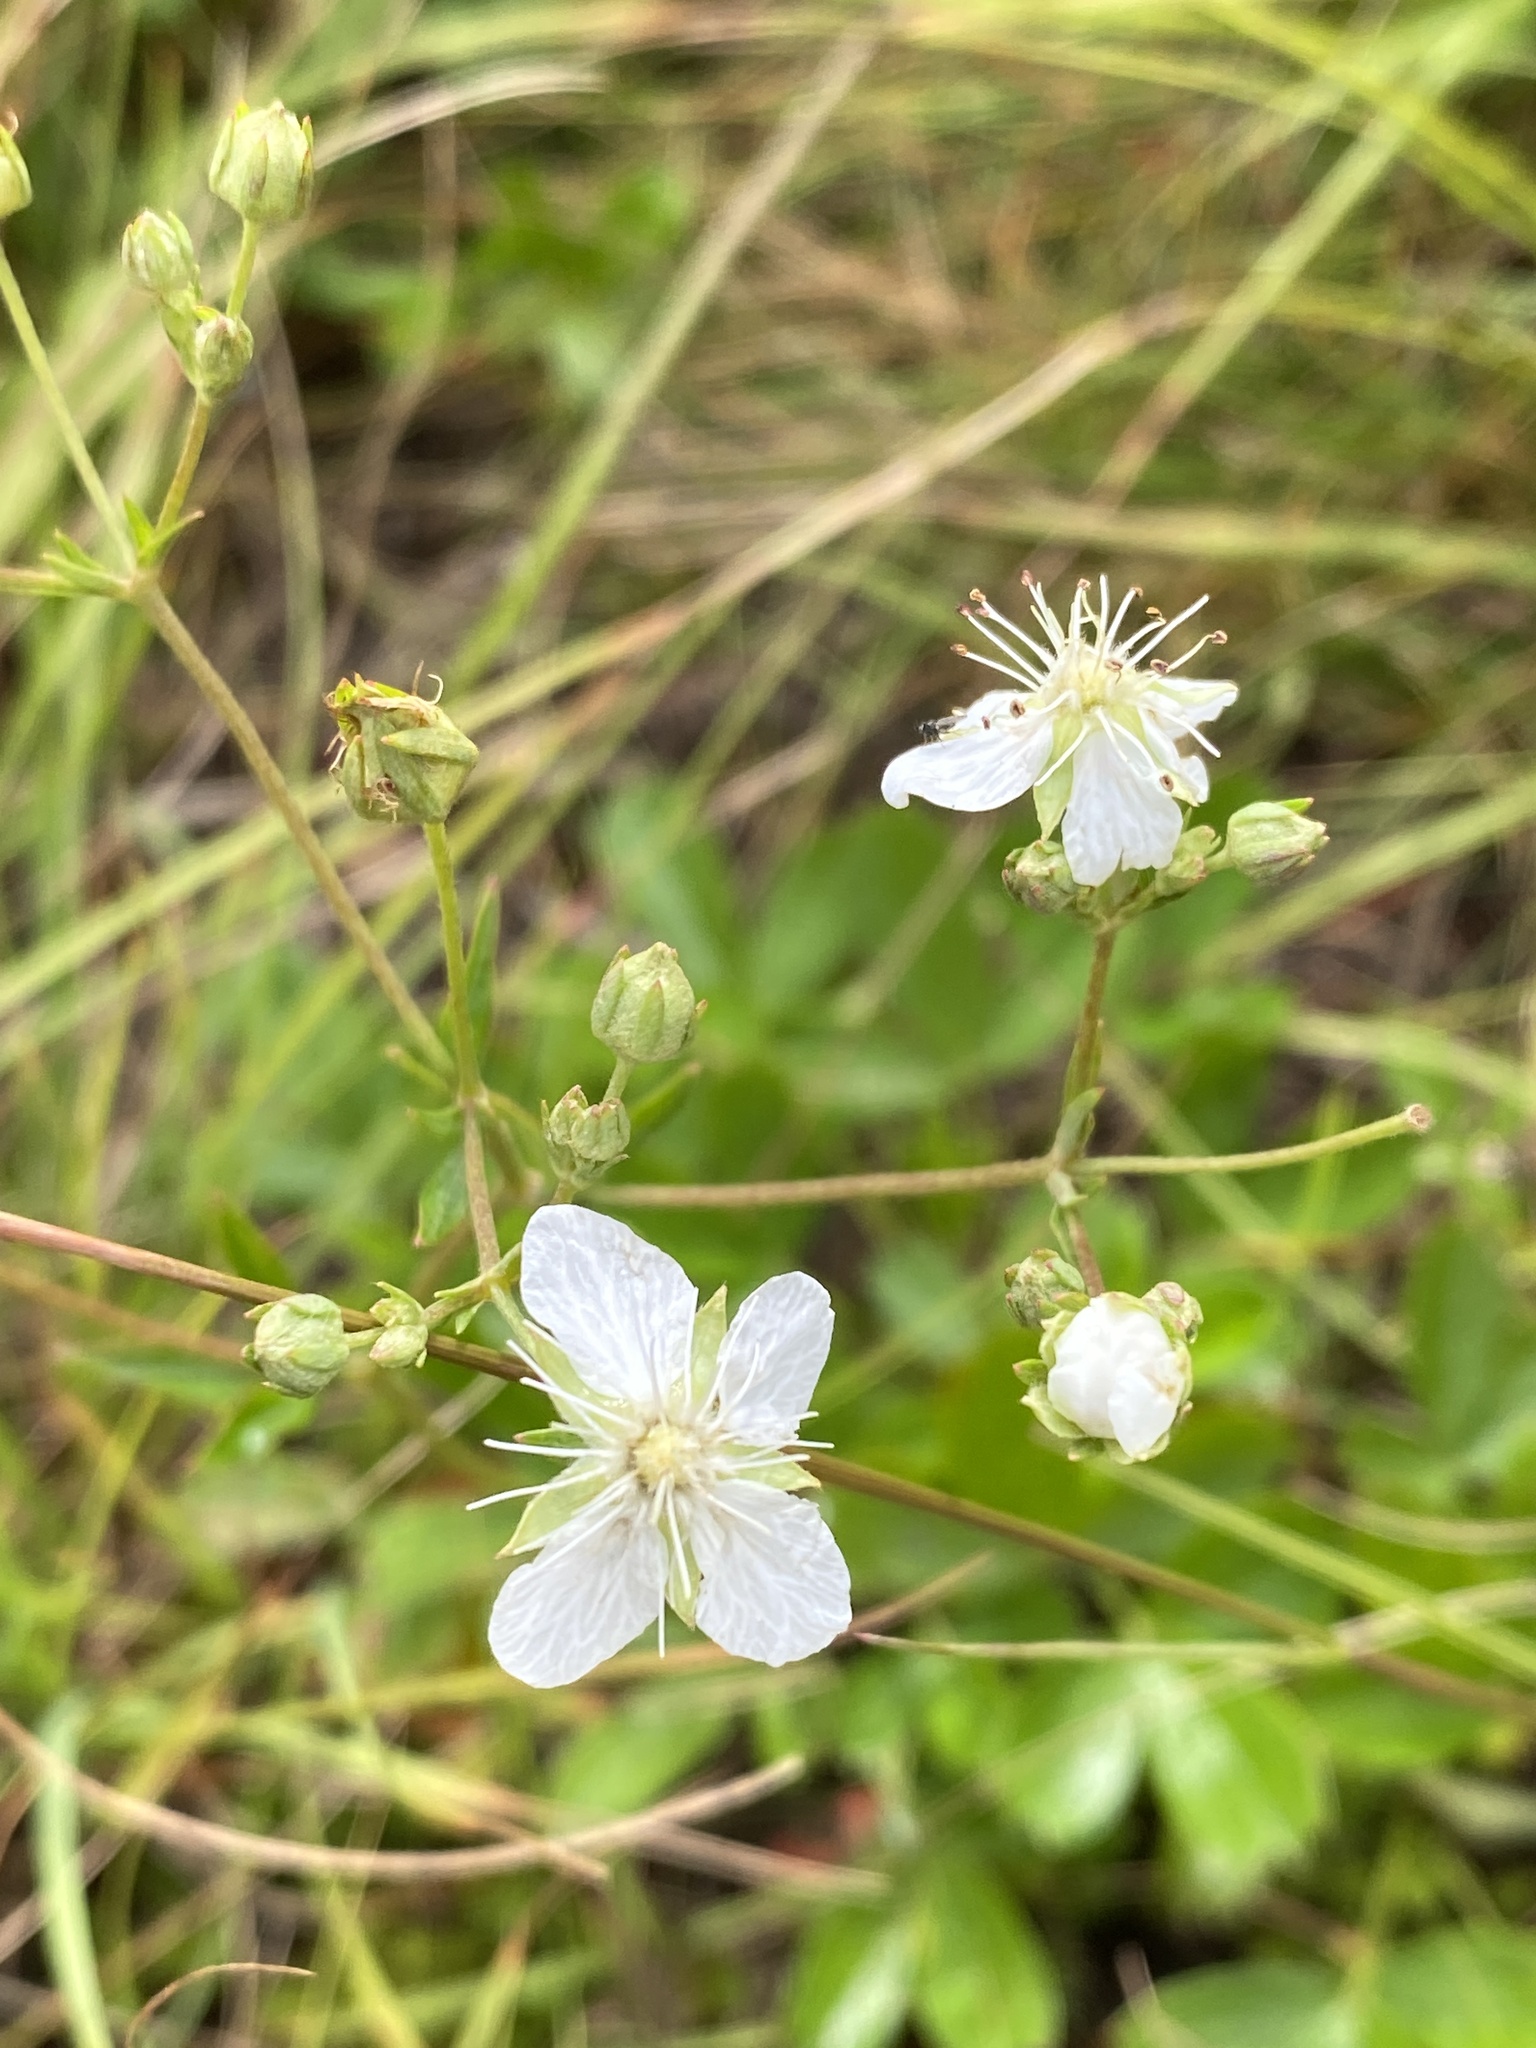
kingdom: Plantae
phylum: Tracheophyta
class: Magnoliopsida
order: Rosales
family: Rosaceae
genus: Sibbaldia
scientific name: Sibbaldia tridentata
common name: Three-toothed cinquefoil
